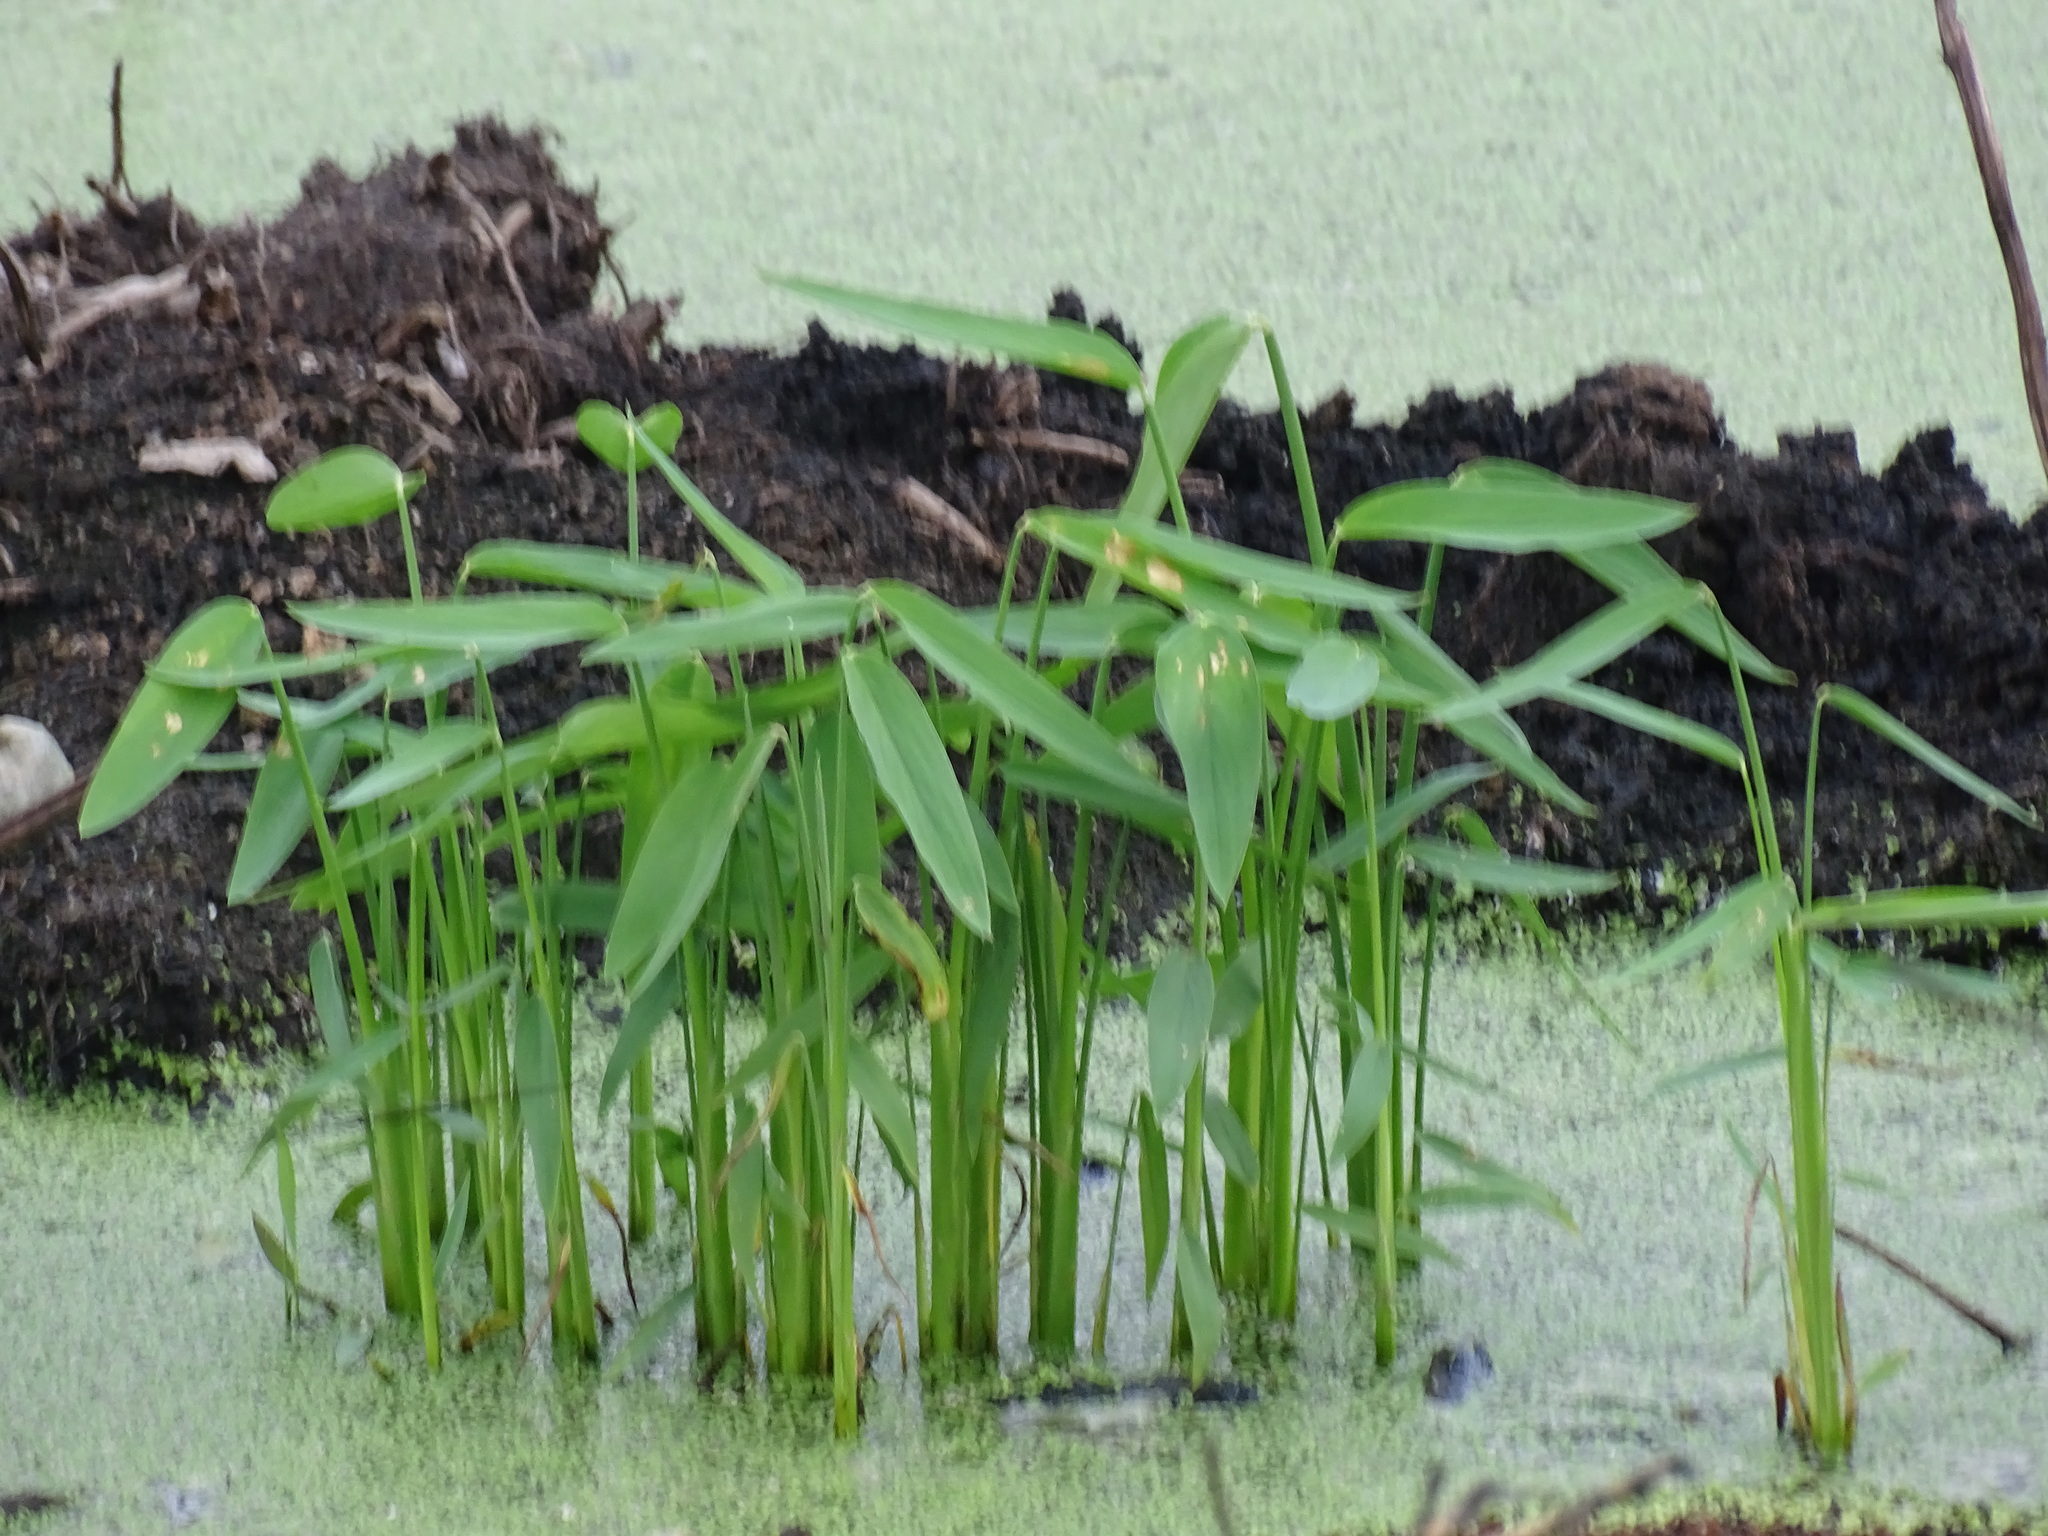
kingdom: Plantae
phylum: Tracheophyta
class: Liliopsida
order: Zingiberales
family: Marantaceae
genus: Thalia
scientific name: Thalia geniculata
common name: Arrowroot
